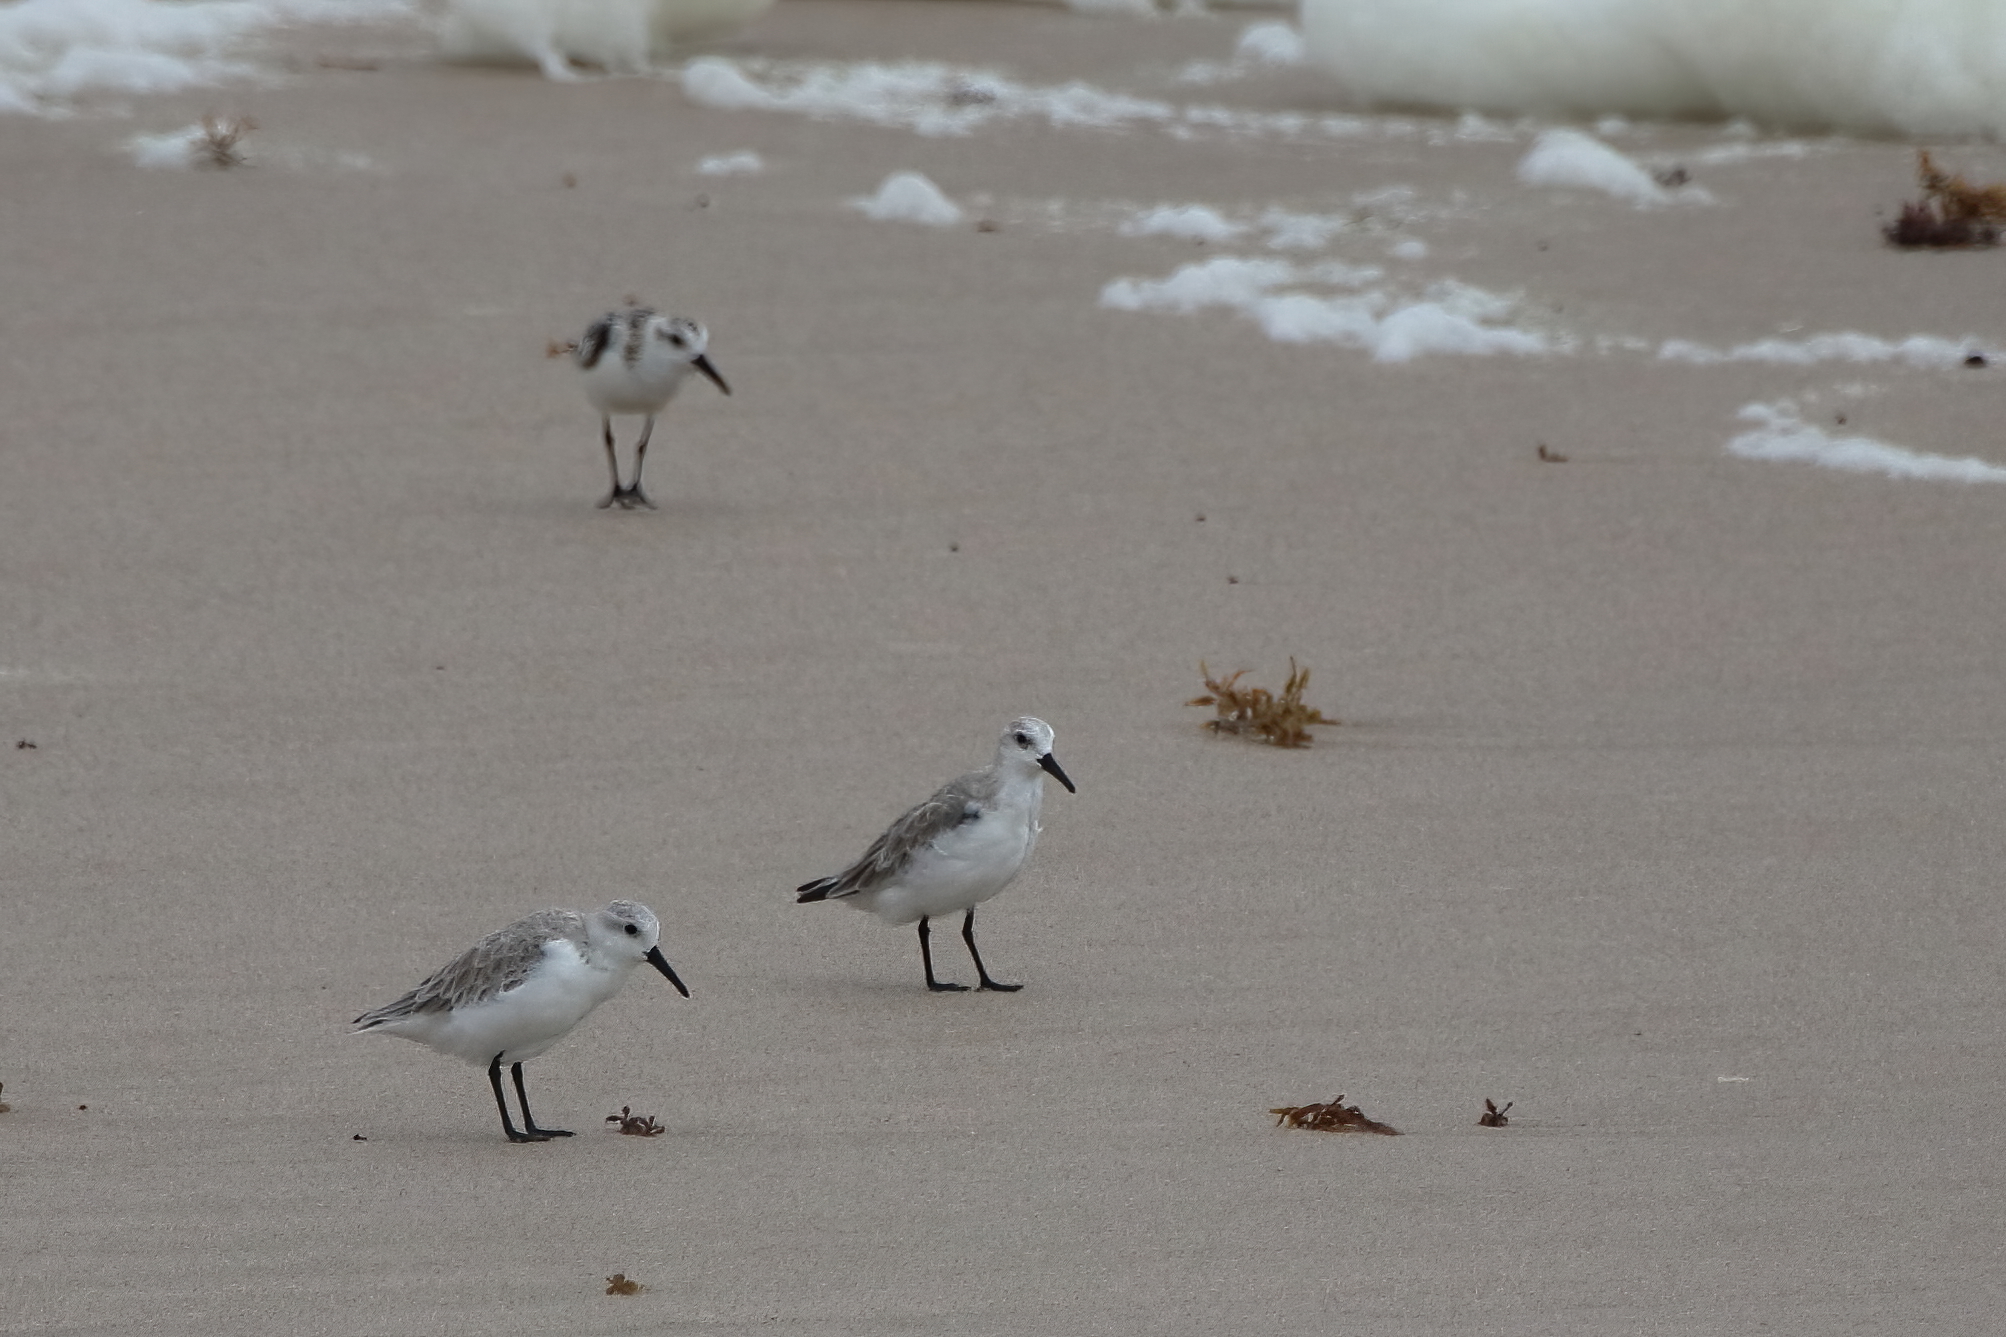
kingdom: Animalia
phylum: Chordata
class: Aves
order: Charadriiformes
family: Scolopacidae
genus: Calidris
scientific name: Calidris alba
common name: Sanderling
